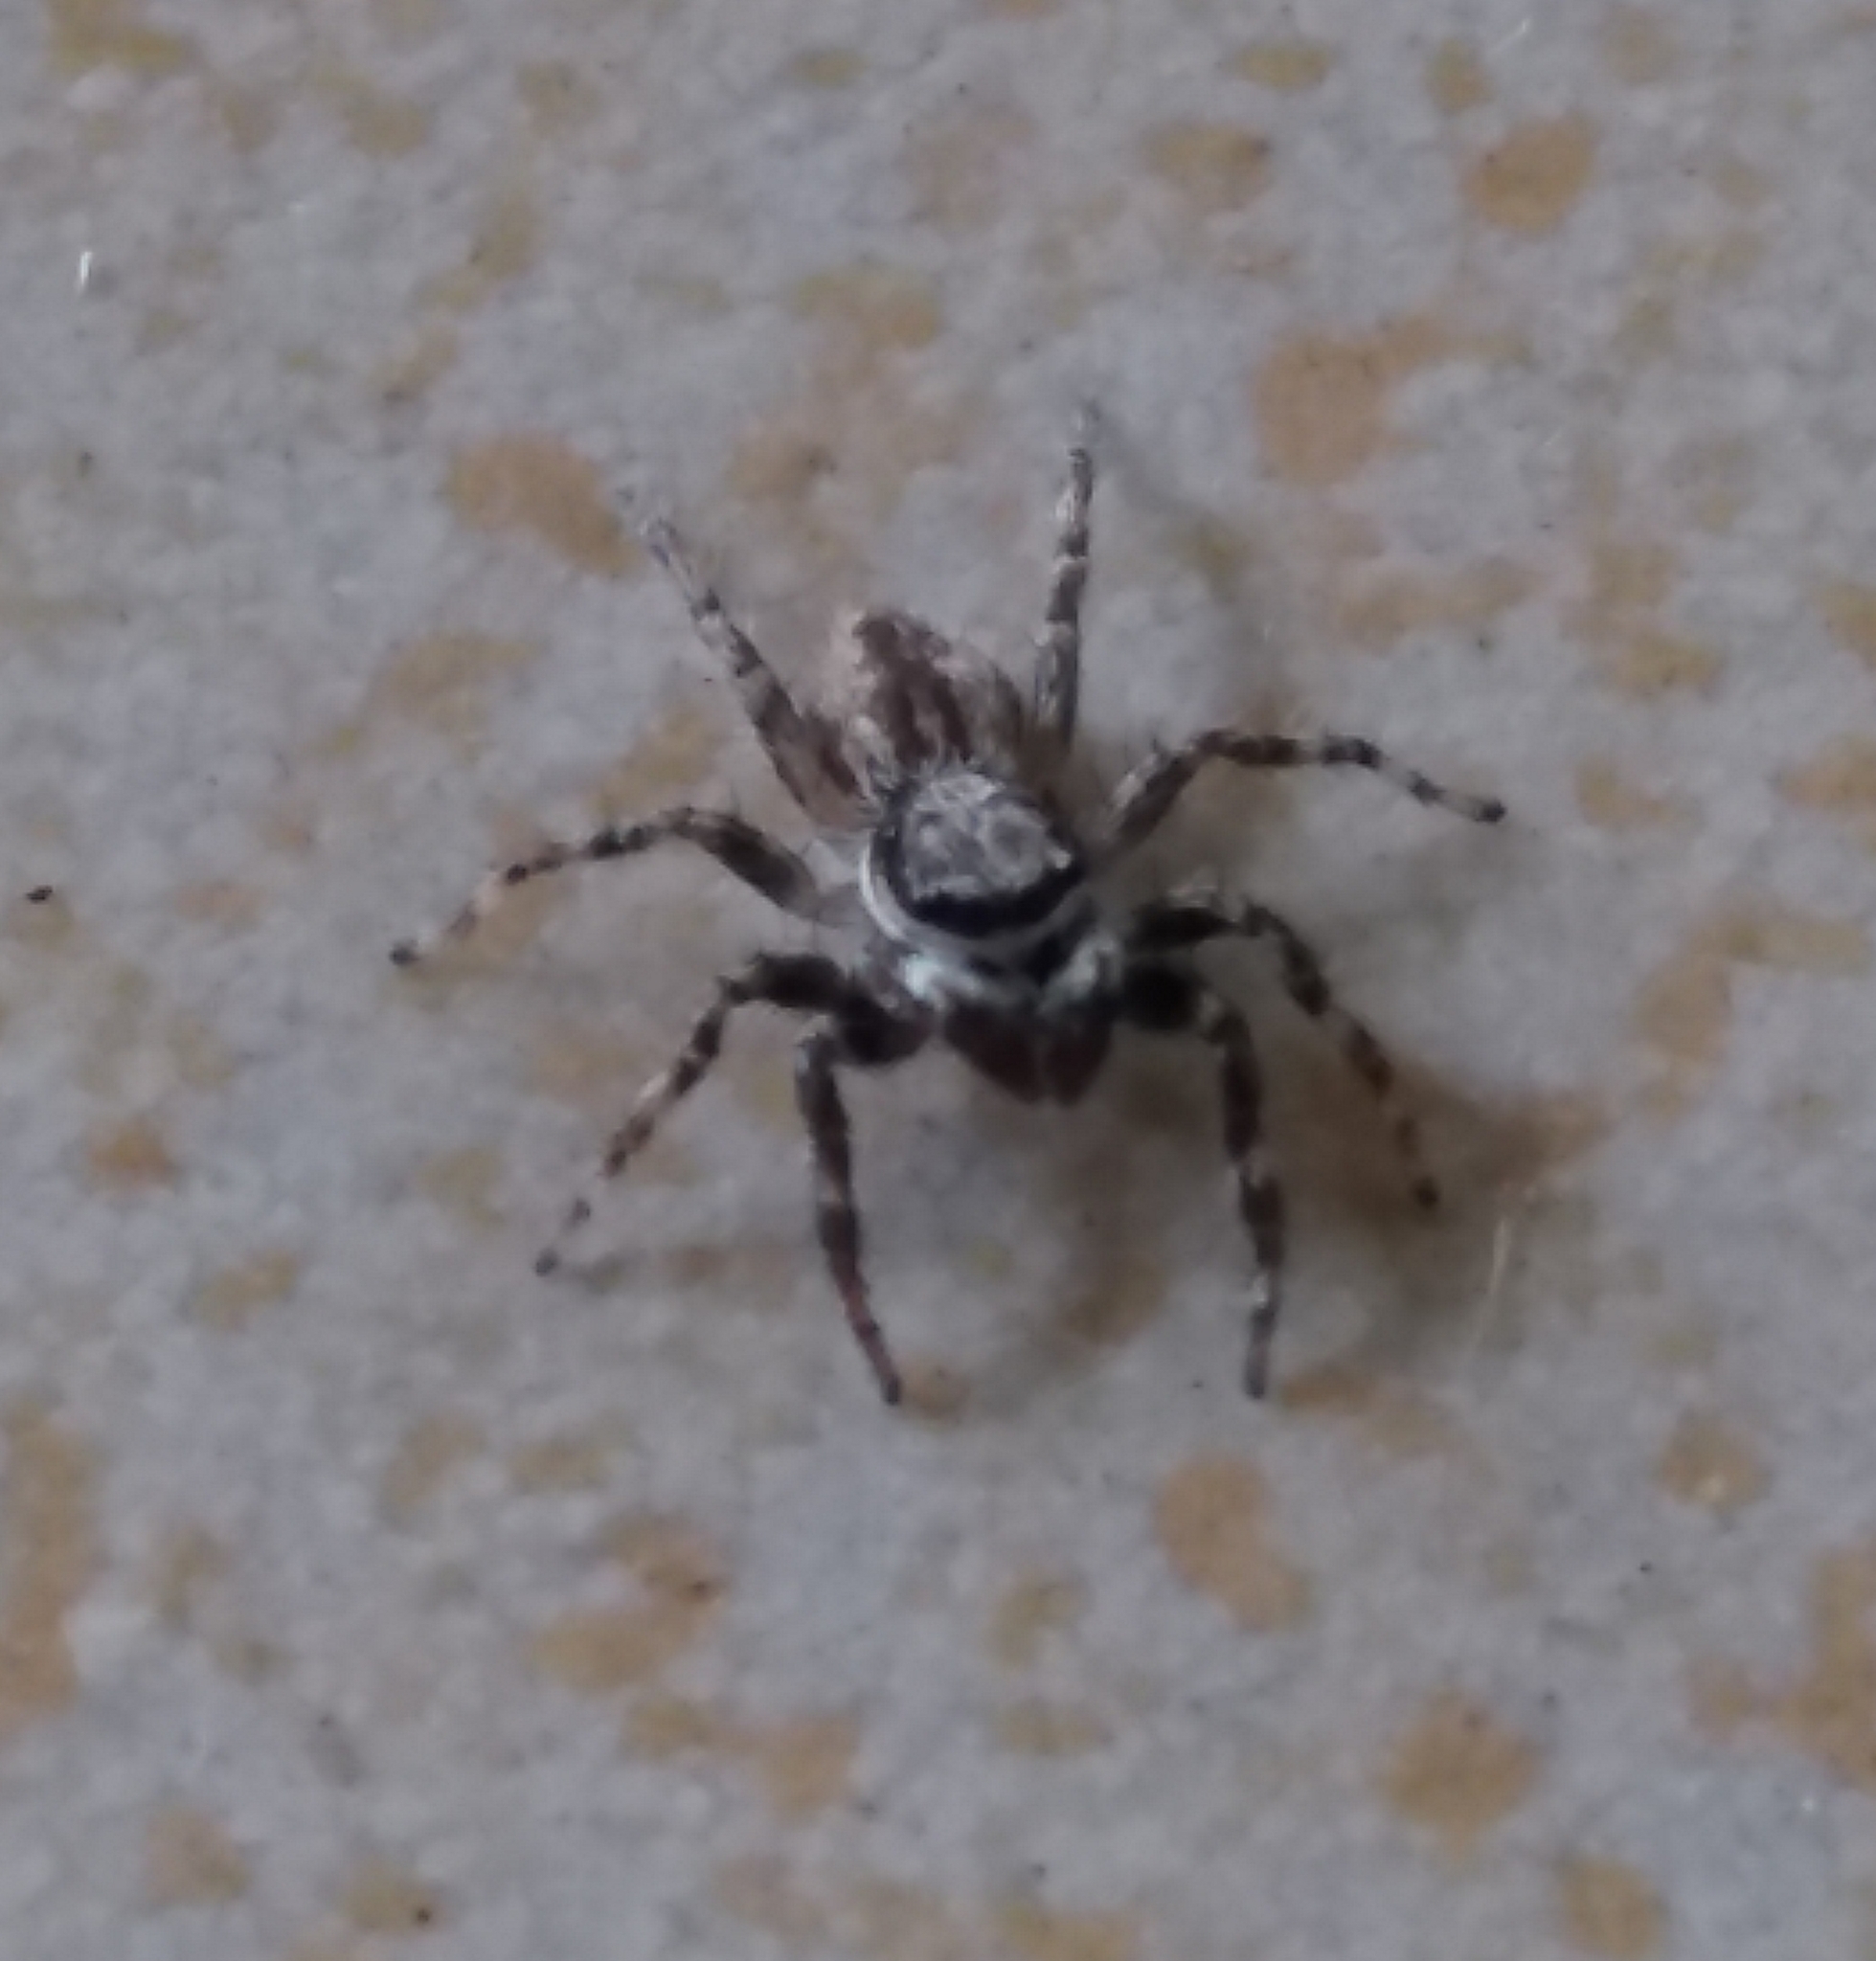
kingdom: Animalia
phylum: Arthropoda
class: Arachnida
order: Araneae
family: Salticidae
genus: Menemerus
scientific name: Menemerus bivittatus
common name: Gray wall jumper
